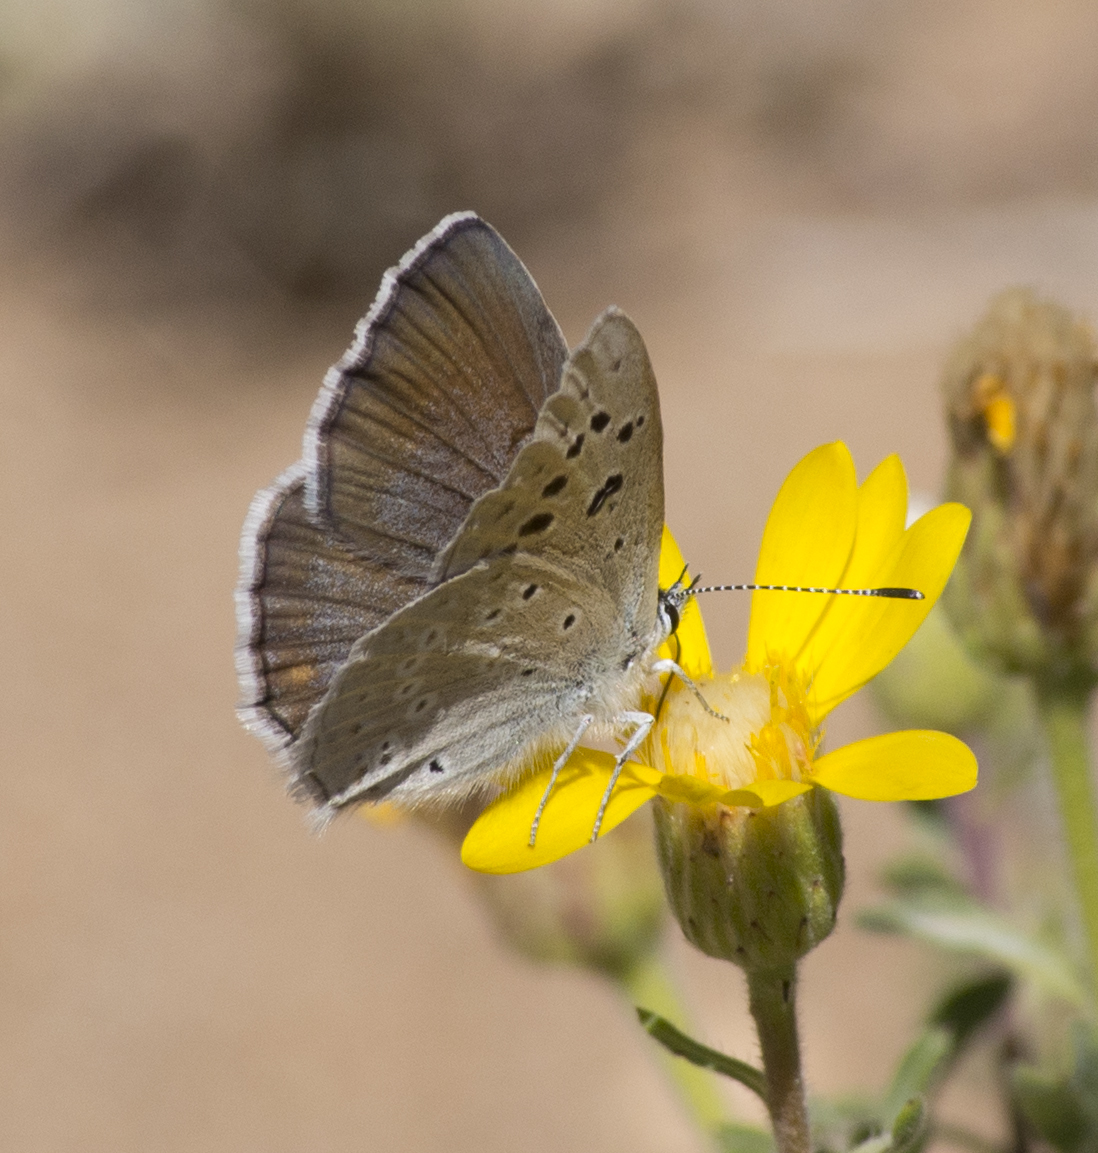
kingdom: Animalia
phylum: Arthropoda
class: Insecta
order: Lepidoptera
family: Lycaenidae
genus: Icaricia
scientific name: Icaricia icarioides
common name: Boisduval's blue
